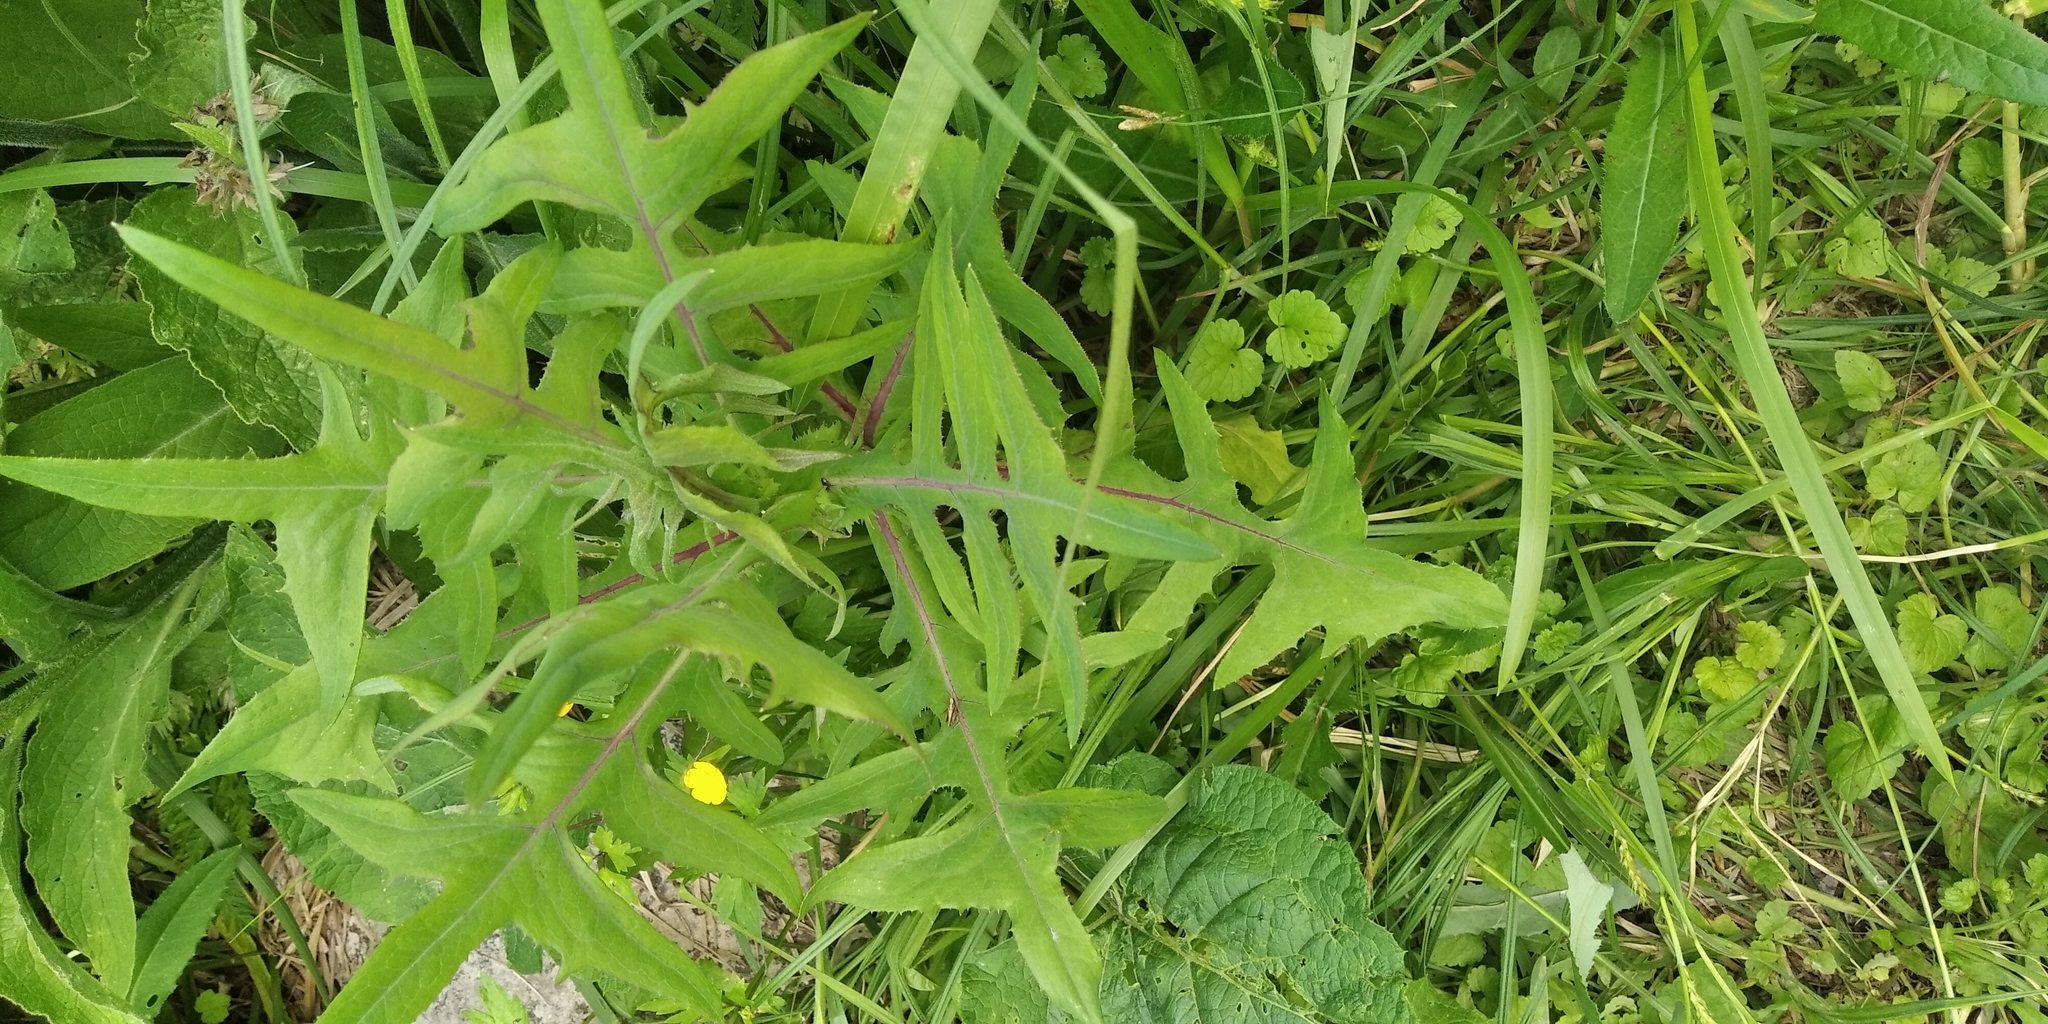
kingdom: Plantae
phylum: Tracheophyta
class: Magnoliopsida
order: Asterales
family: Asteraceae
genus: Sonchus
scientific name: Sonchus palustris
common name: Marsh sow-thistle
